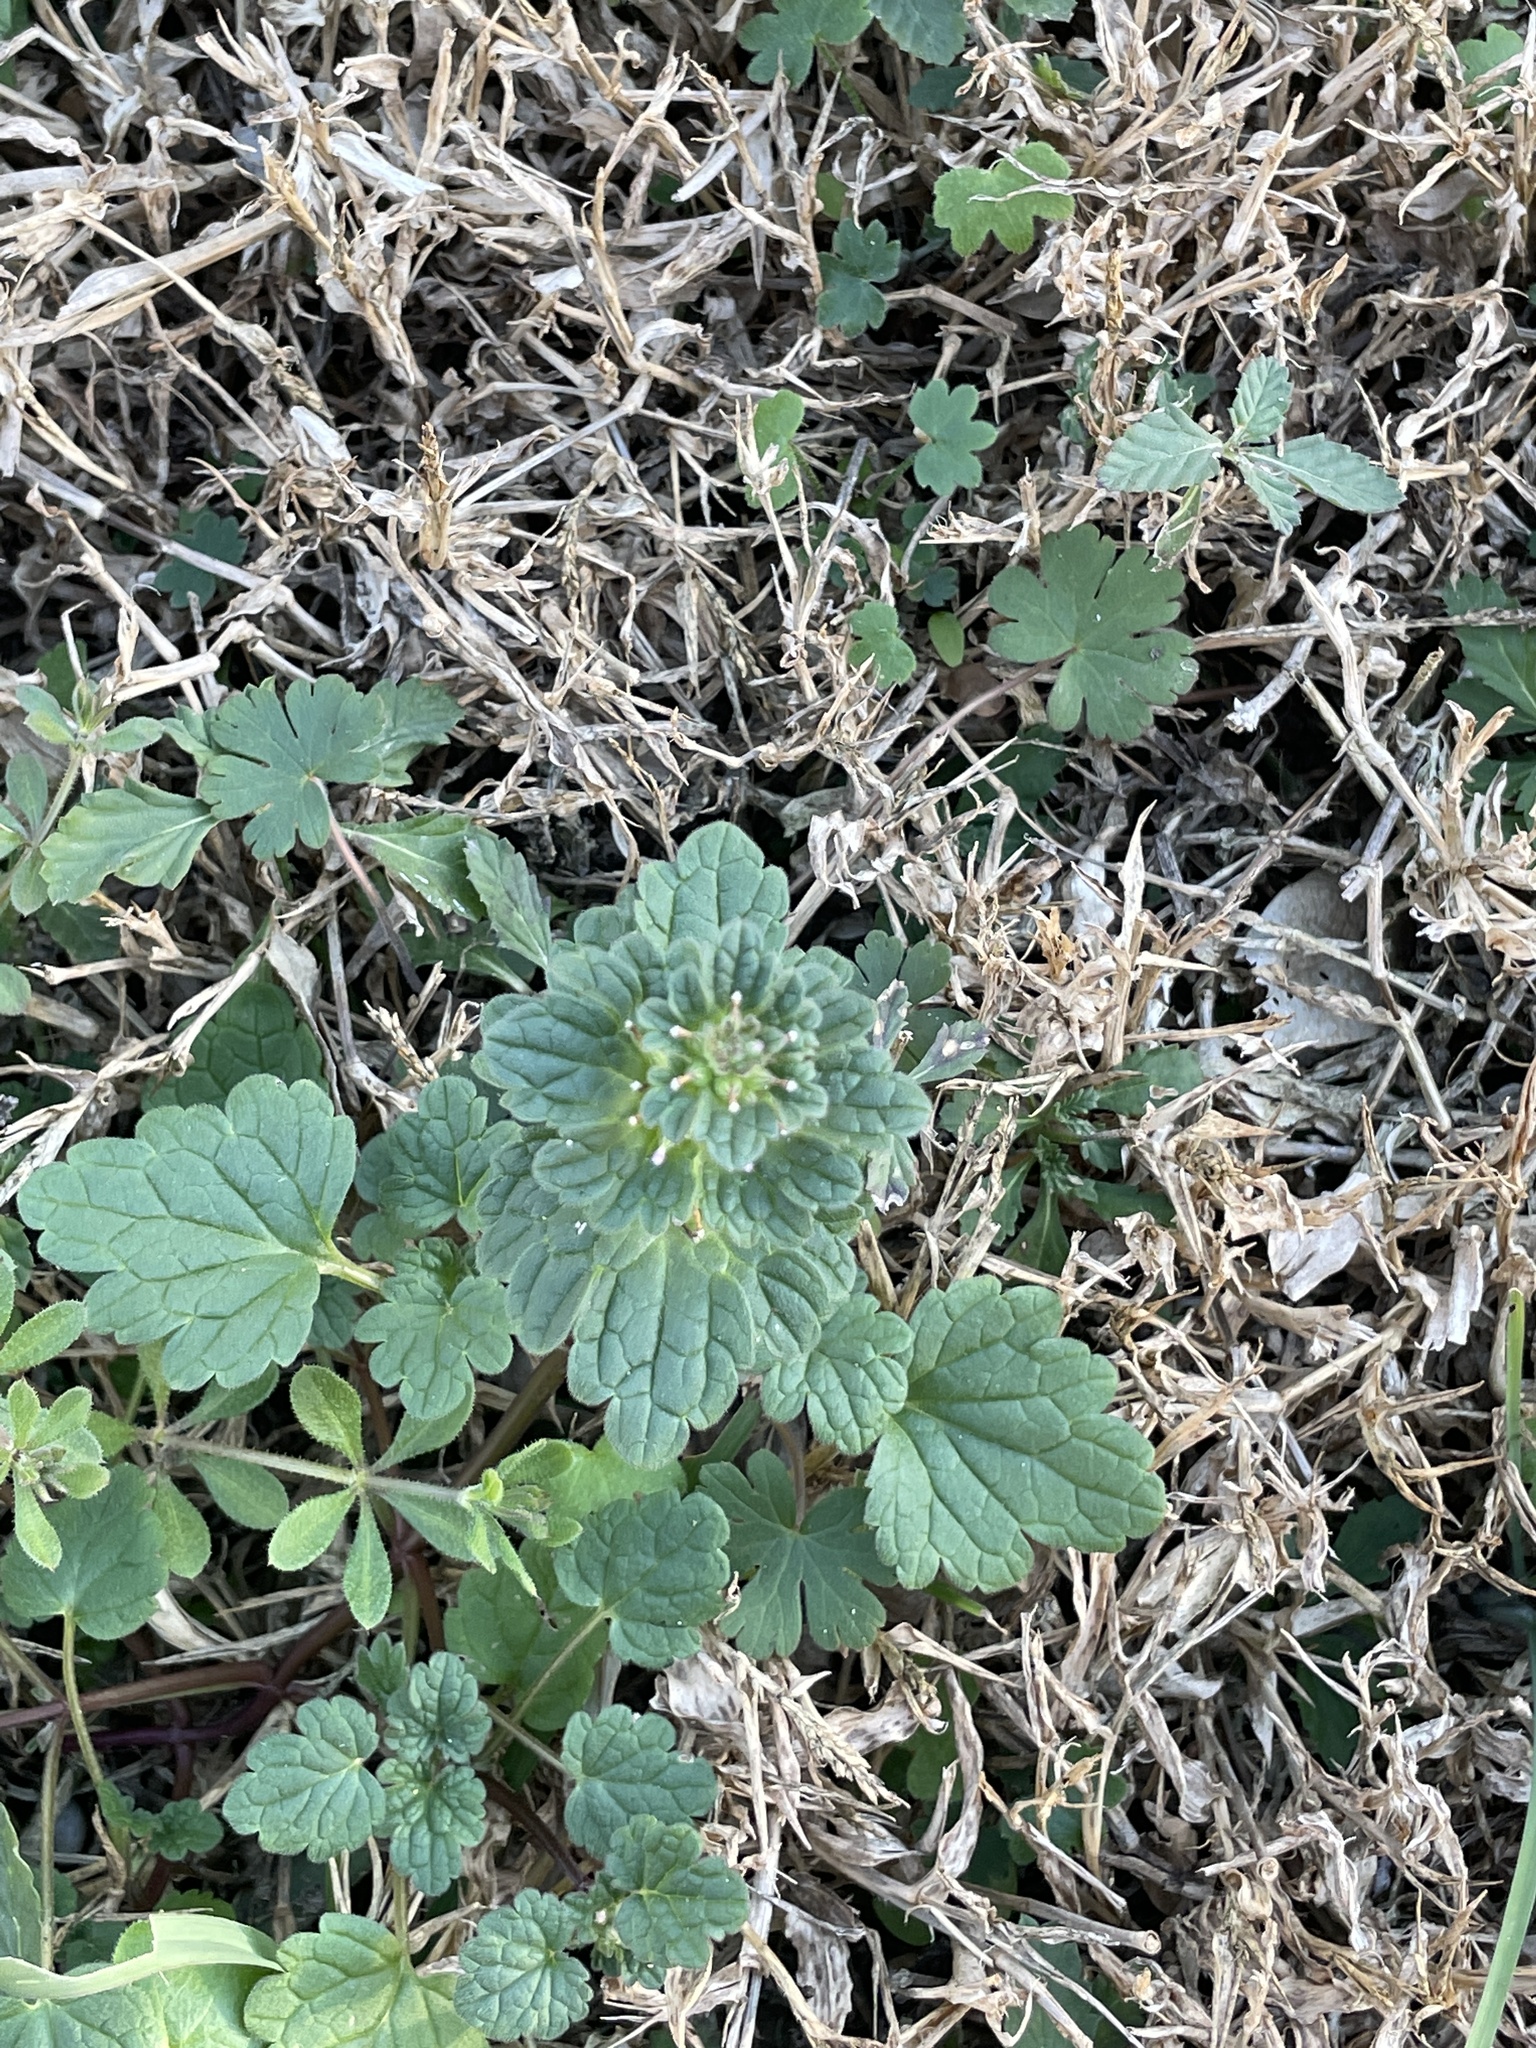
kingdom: Plantae
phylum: Tracheophyta
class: Magnoliopsida
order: Lamiales
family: Lamiaceae
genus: Lamium
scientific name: Lamium amplexicaule
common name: Henbit dead-nettle
